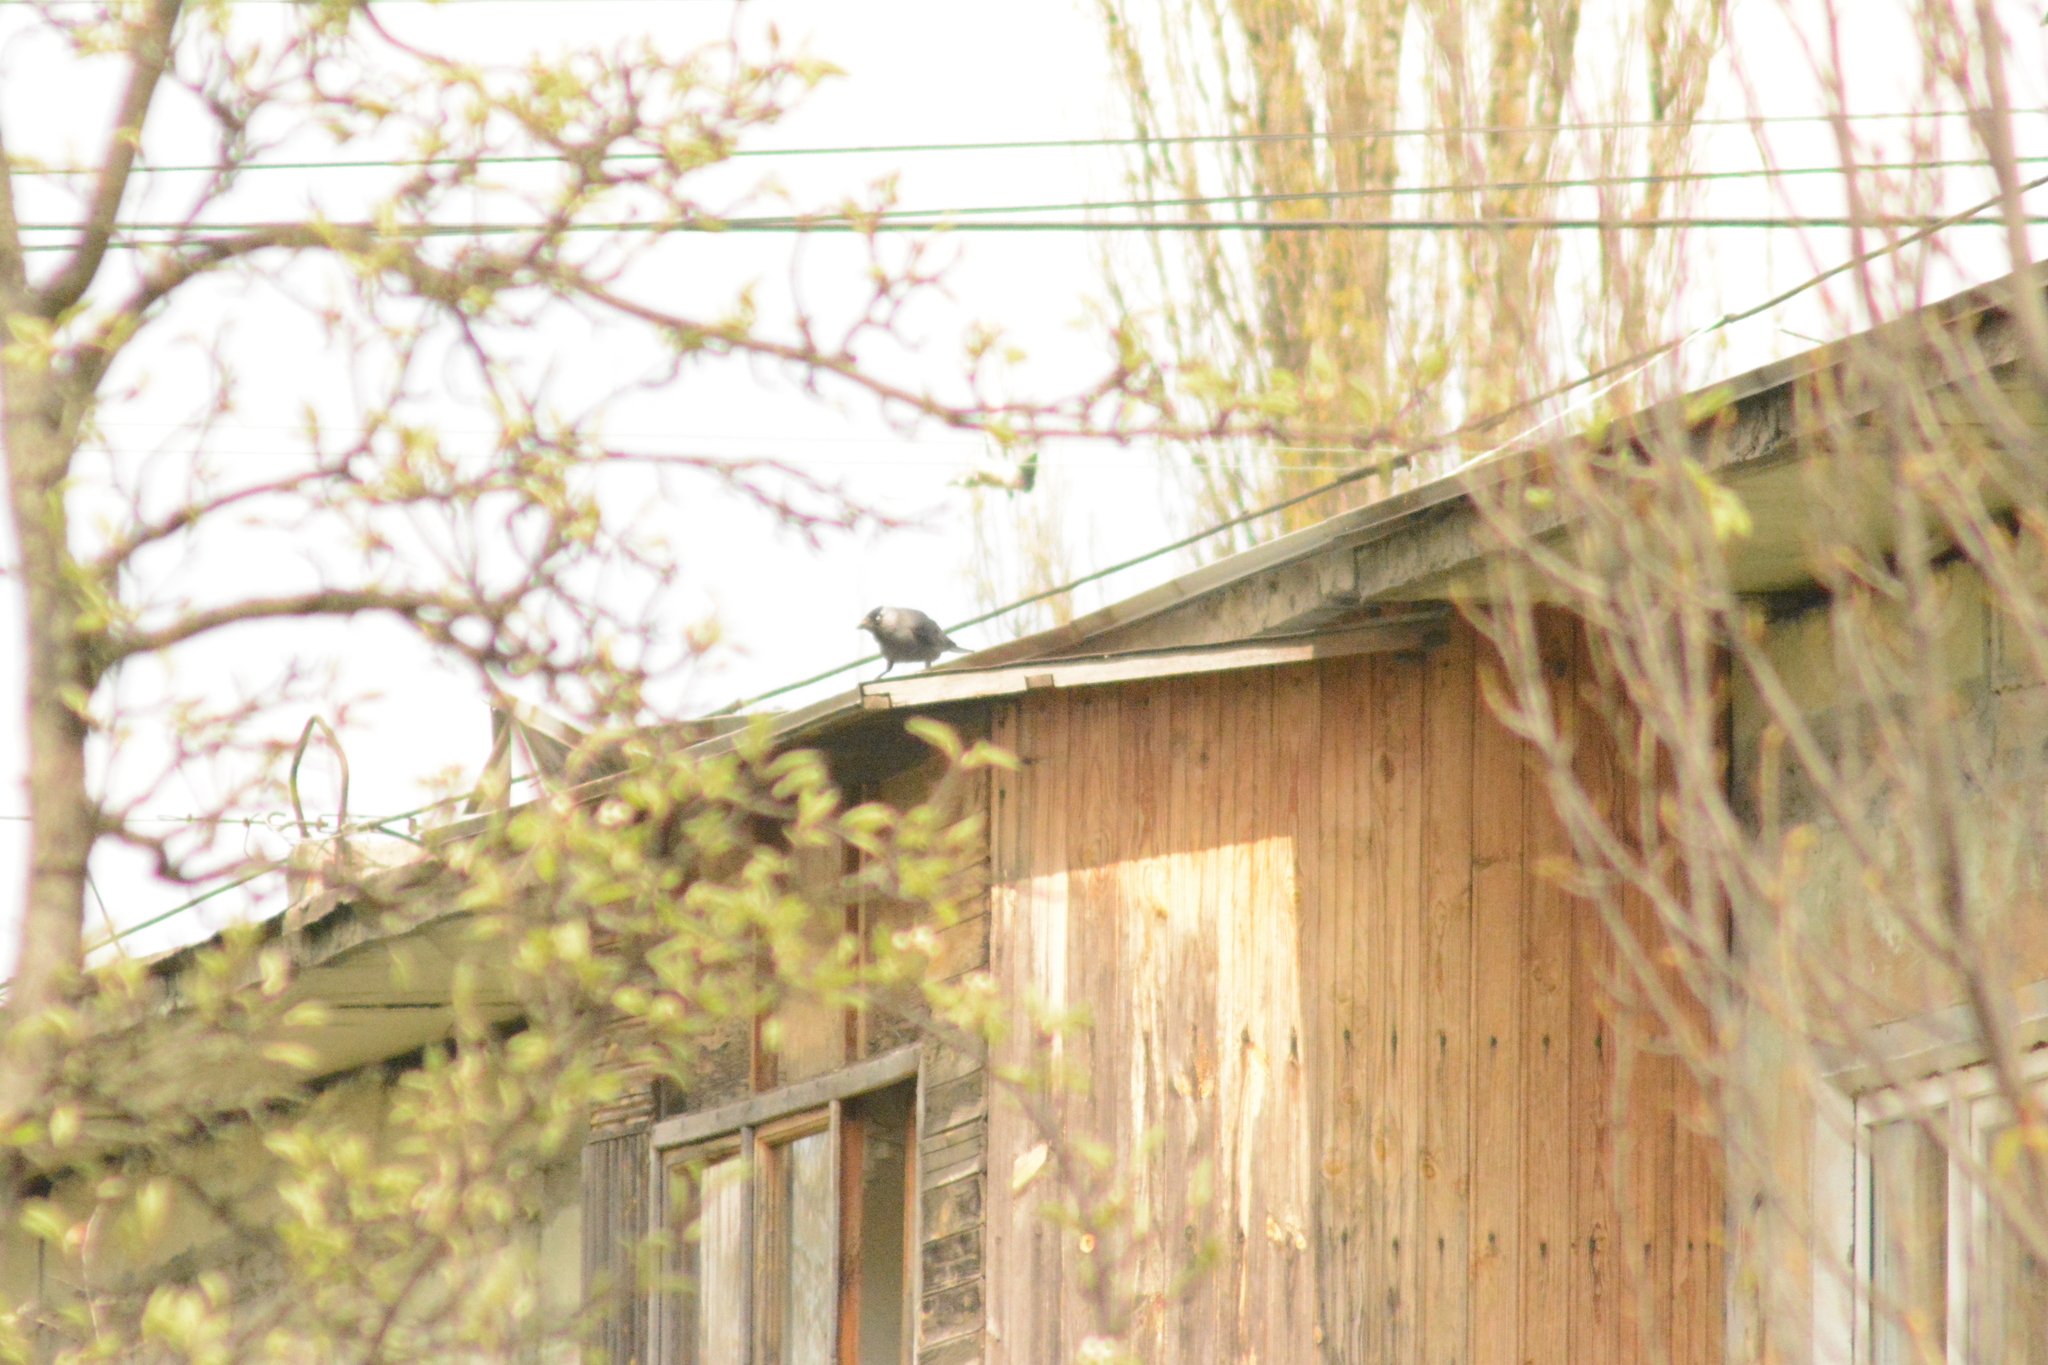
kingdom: Animalia
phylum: Chordata
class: Aves
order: Passeriformes
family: Corvidae
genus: Coloeus
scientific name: Coloeus monedula
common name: Western jackdaw
